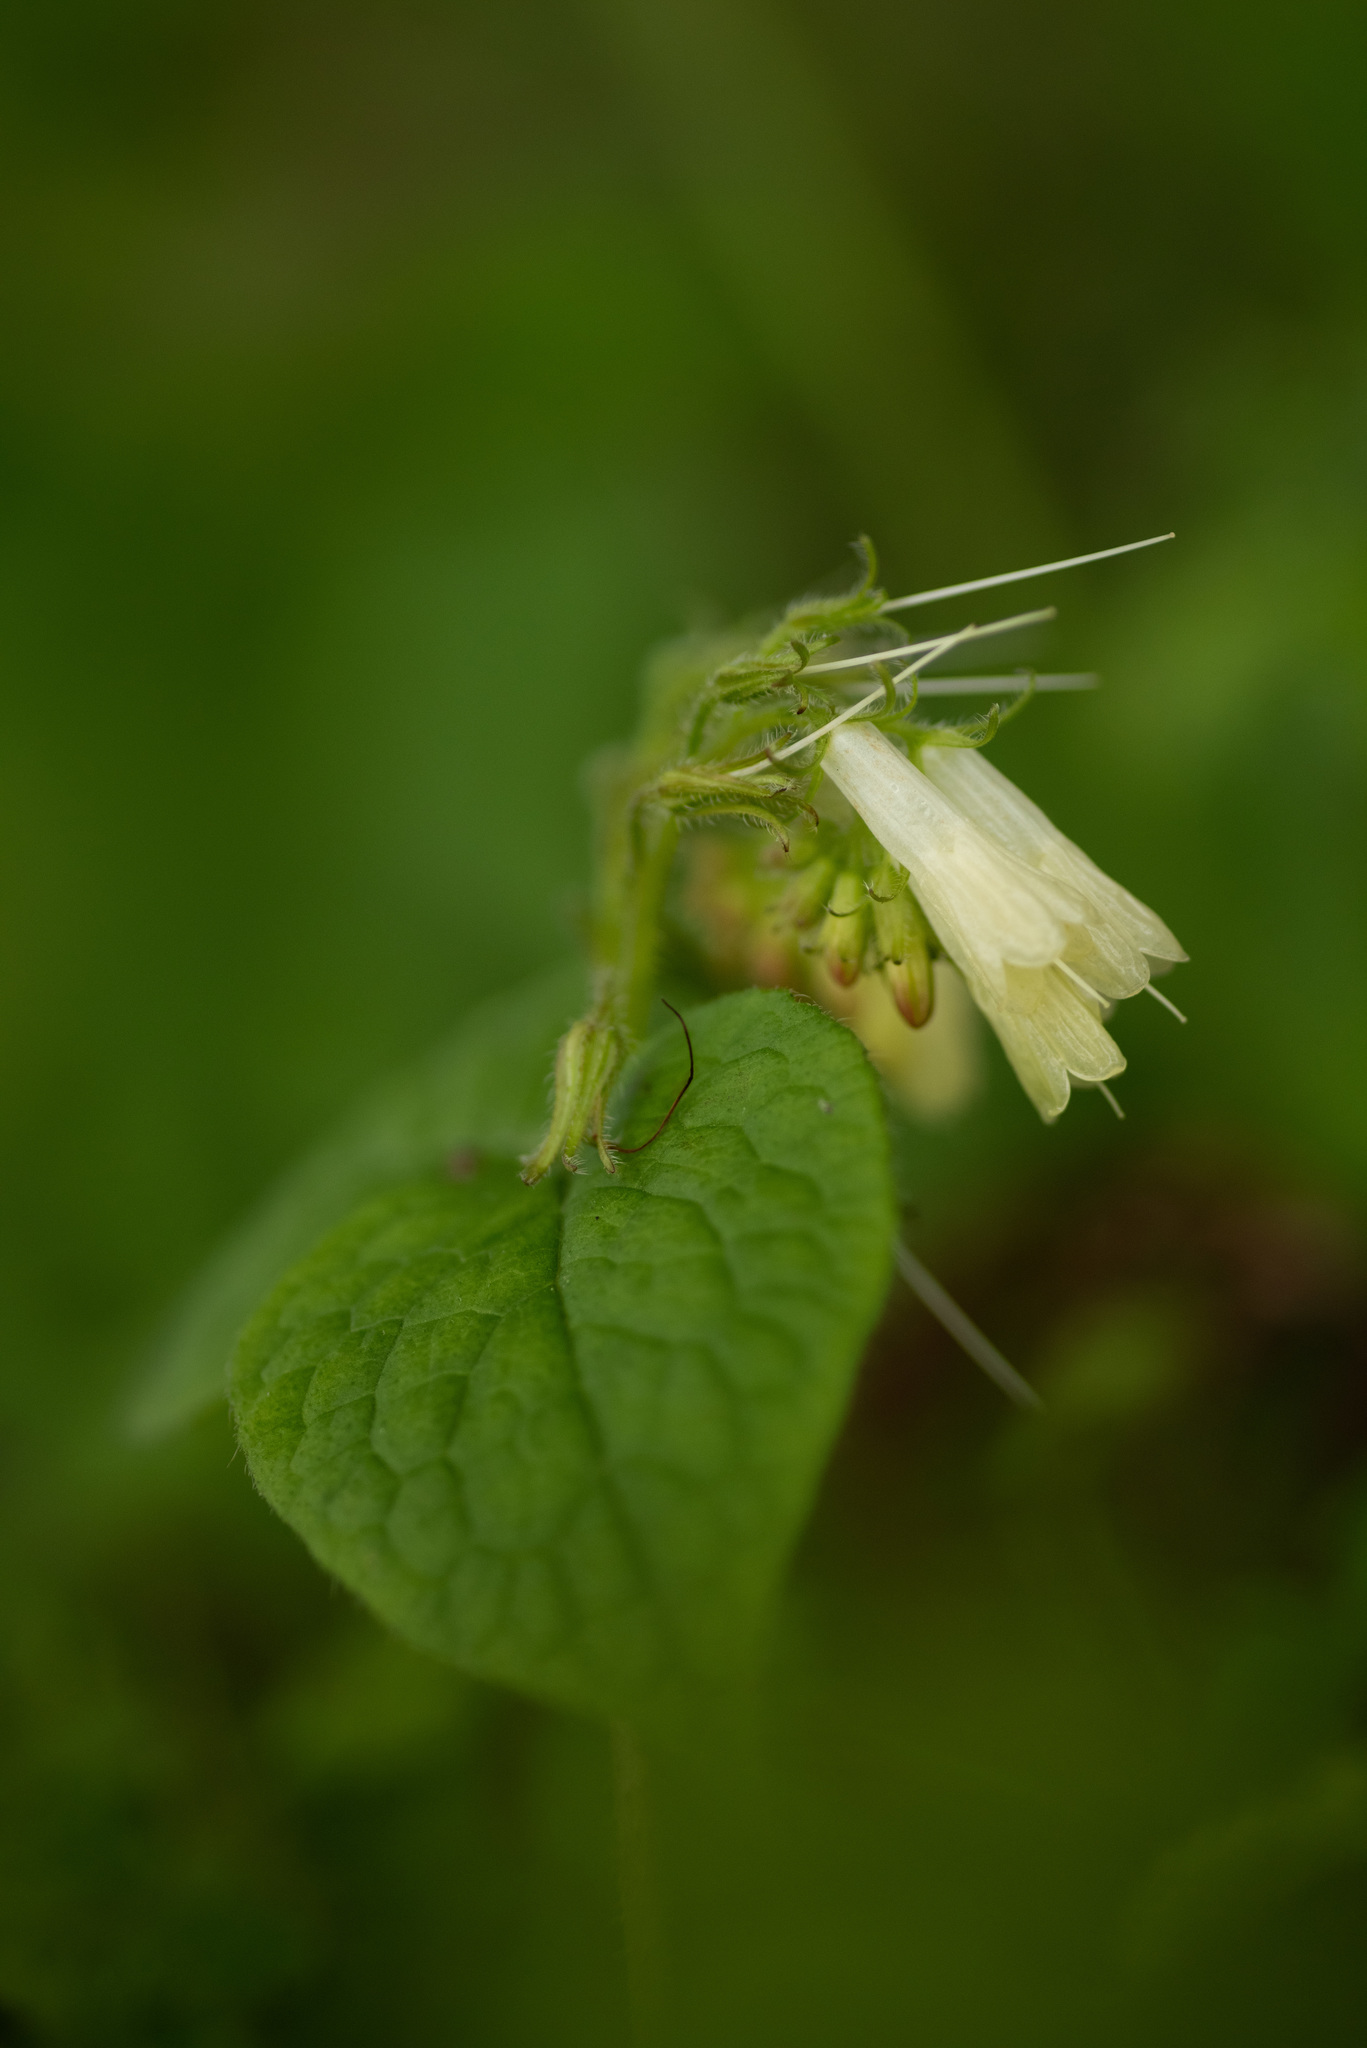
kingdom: Plantae
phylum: Tracheophyta
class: Magnoliopsida
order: Boraginales
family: Boraginaceae
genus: Symphytum
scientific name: Symphytum grandiflorum
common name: Creeping comfrey
